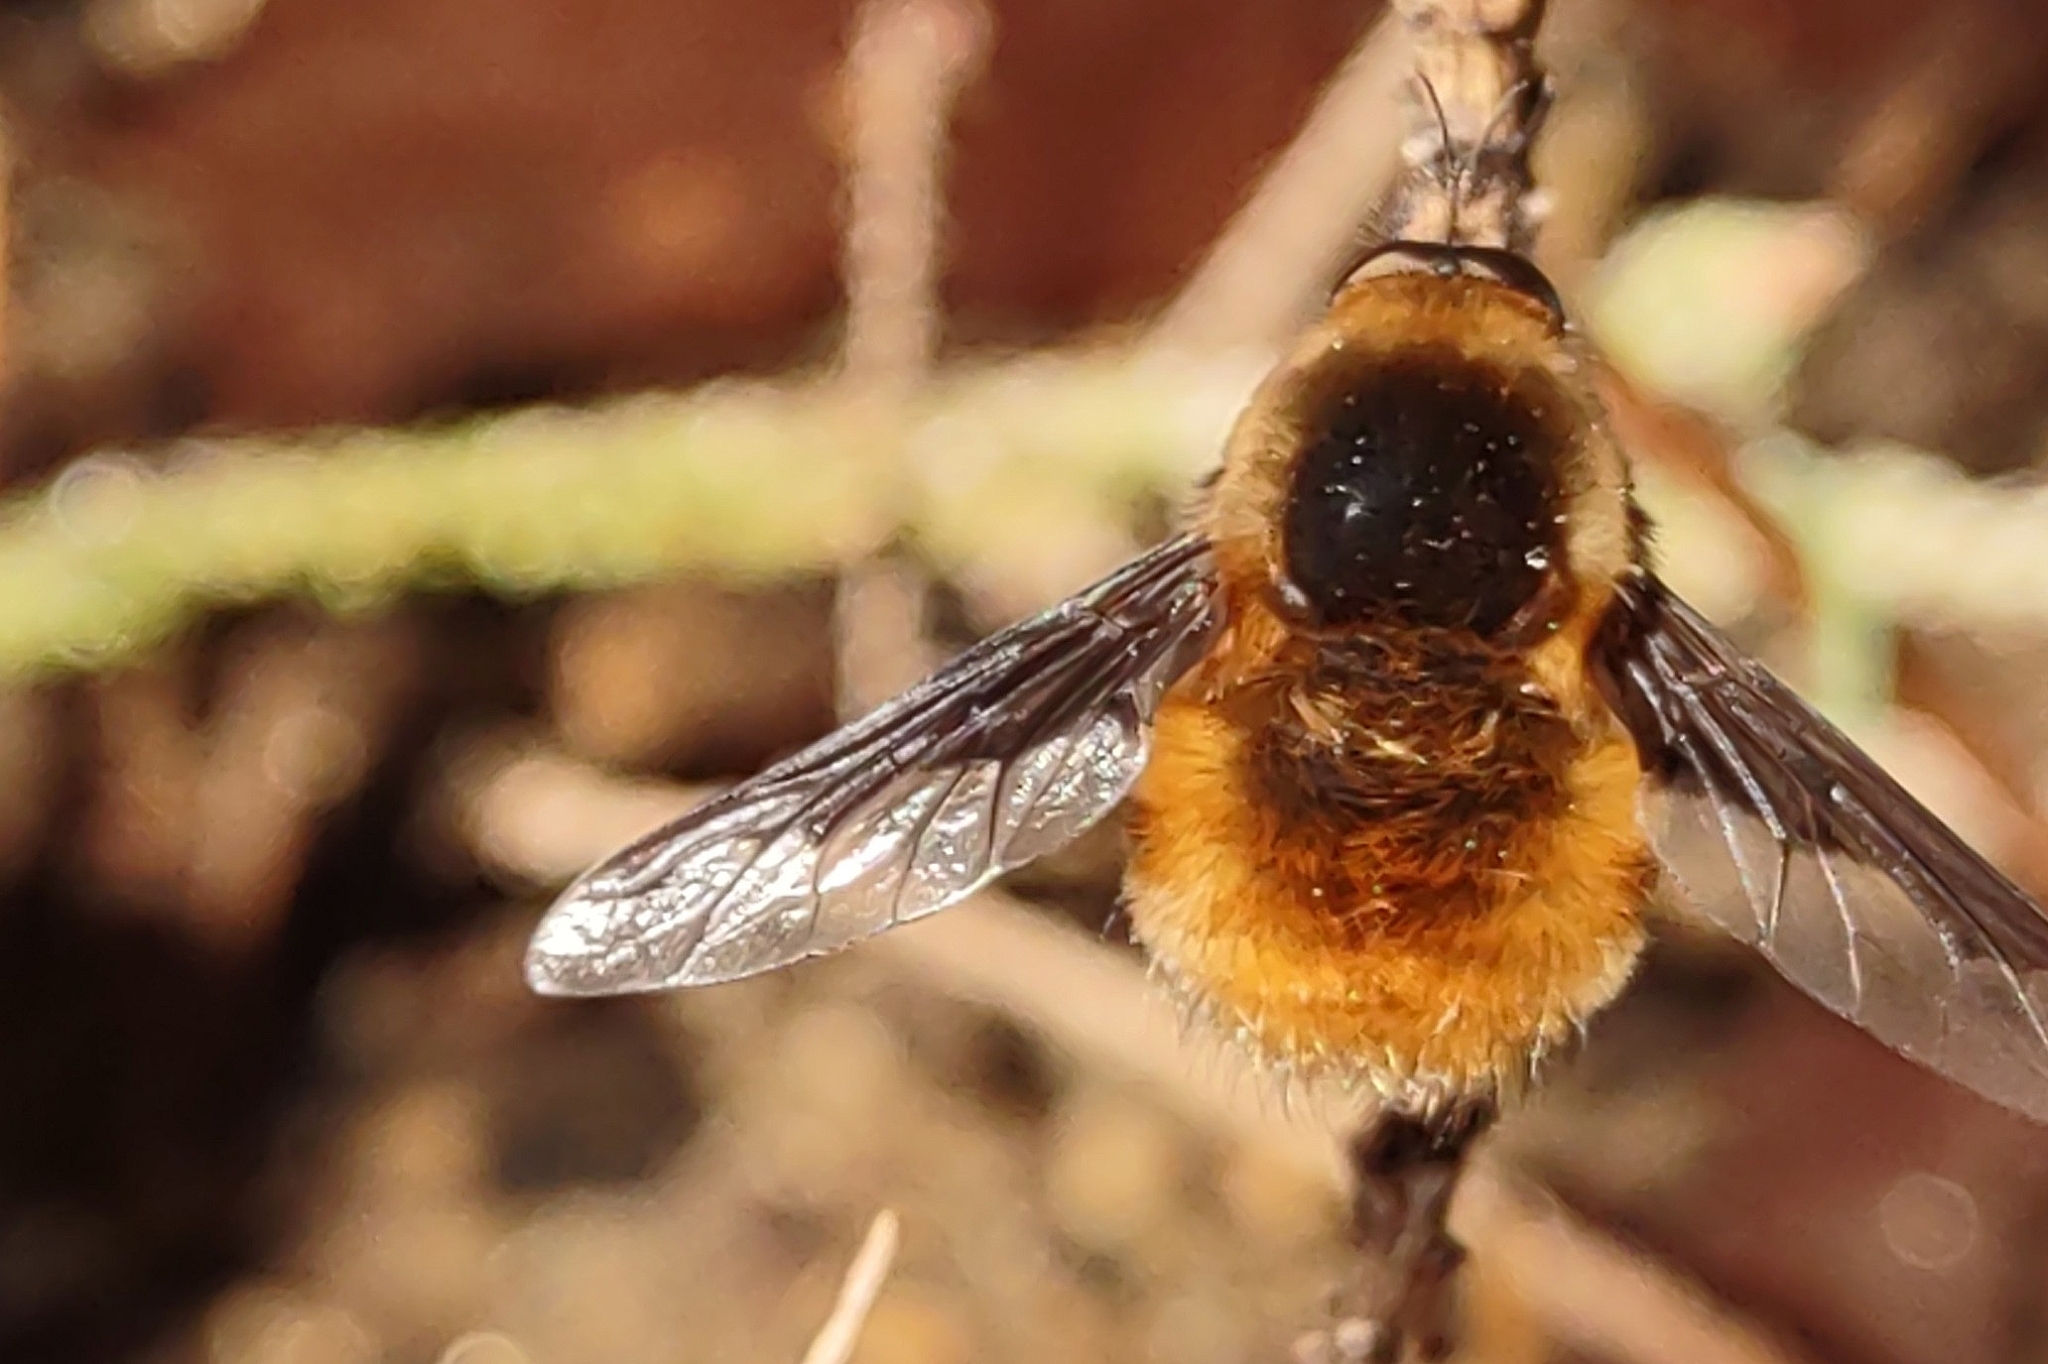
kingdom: Animalia
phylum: Arthropoda
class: Insecta
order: Diptera
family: Bombyliidae
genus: Bombylius
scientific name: Bombylius major
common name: Bee fly
